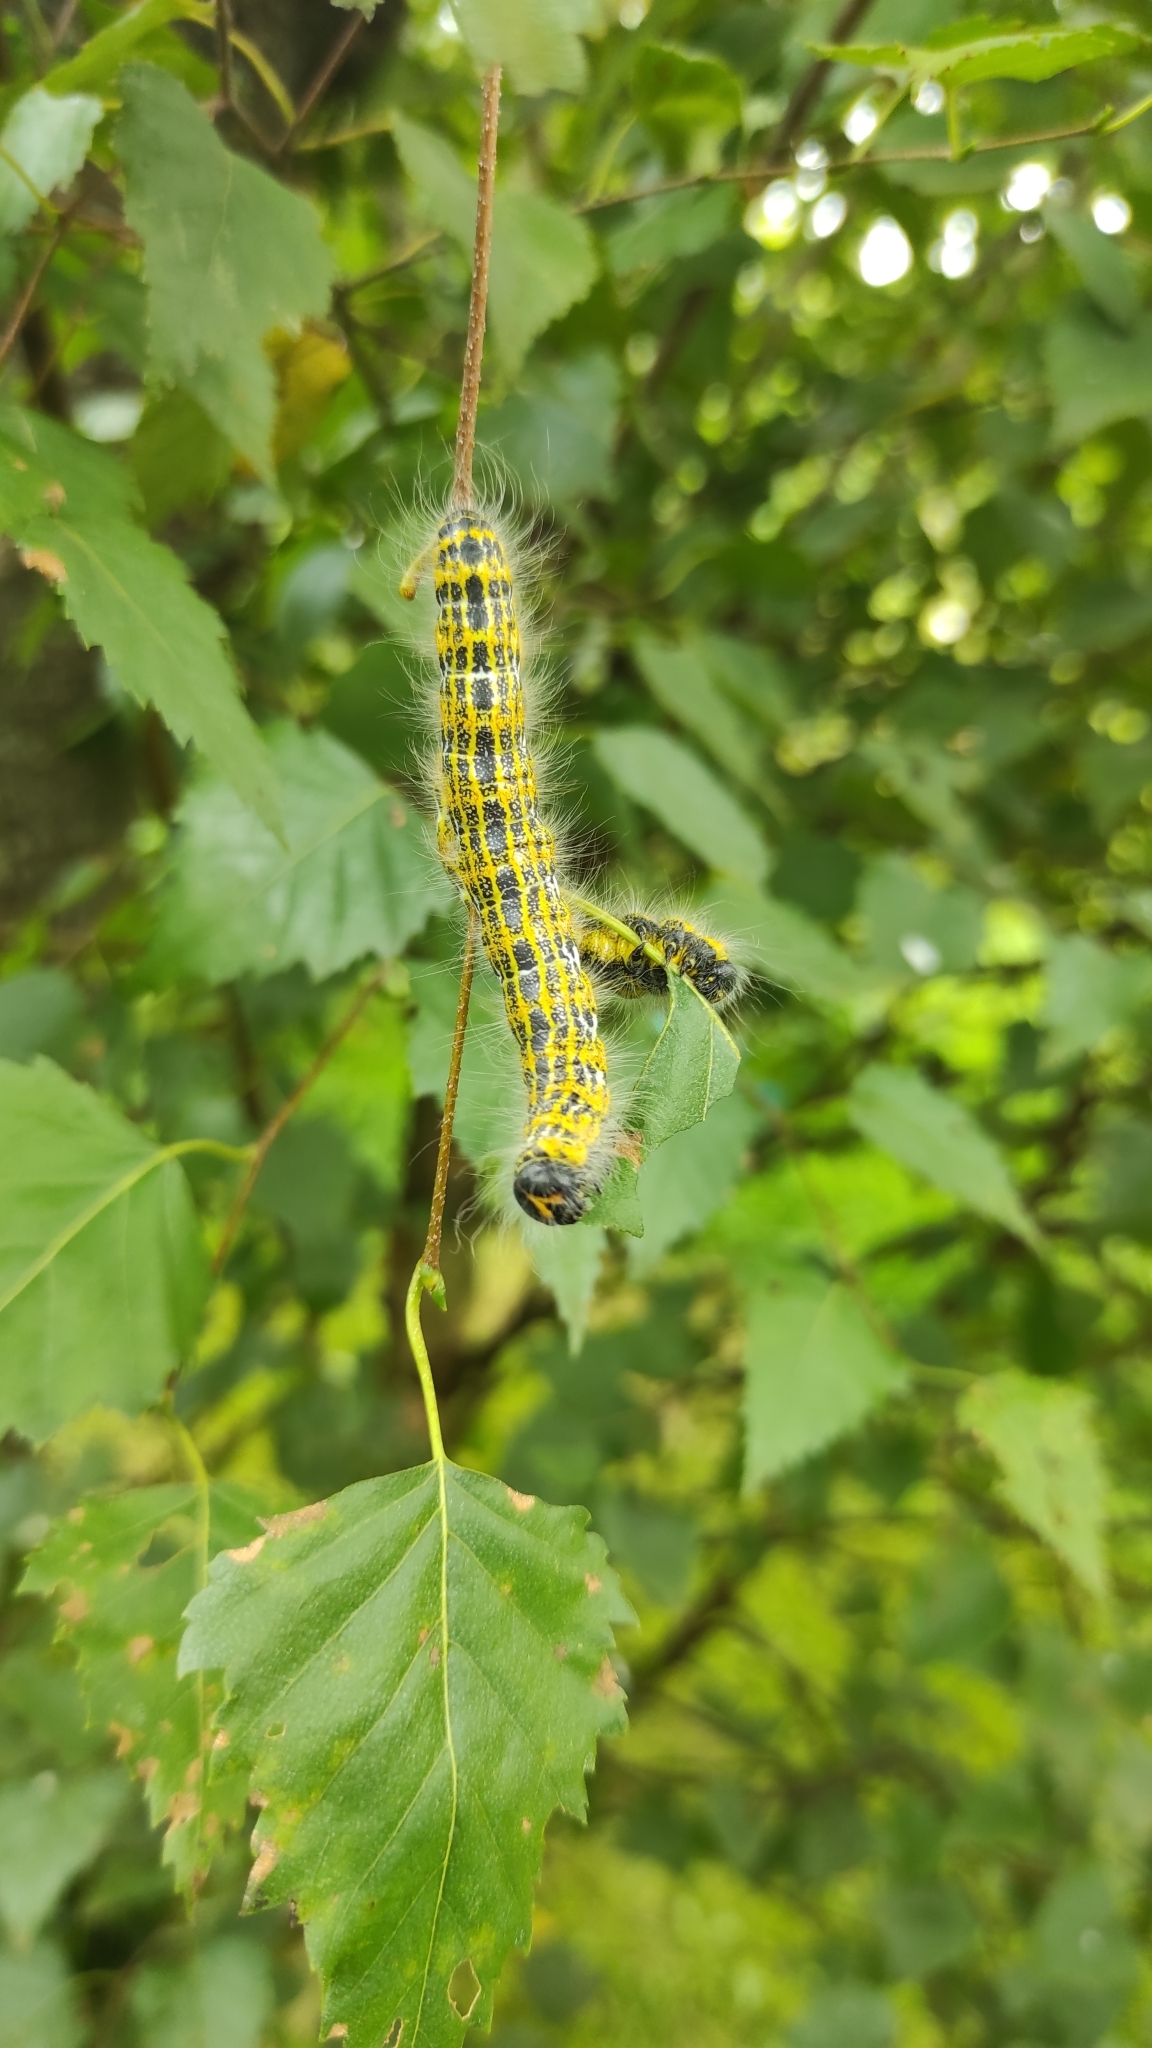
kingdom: Animalia
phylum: Arthropoda
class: Insecta
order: Lepidoptera
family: Notodontidae
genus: Phalera
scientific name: Phalera bucephala
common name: Buff-tip
